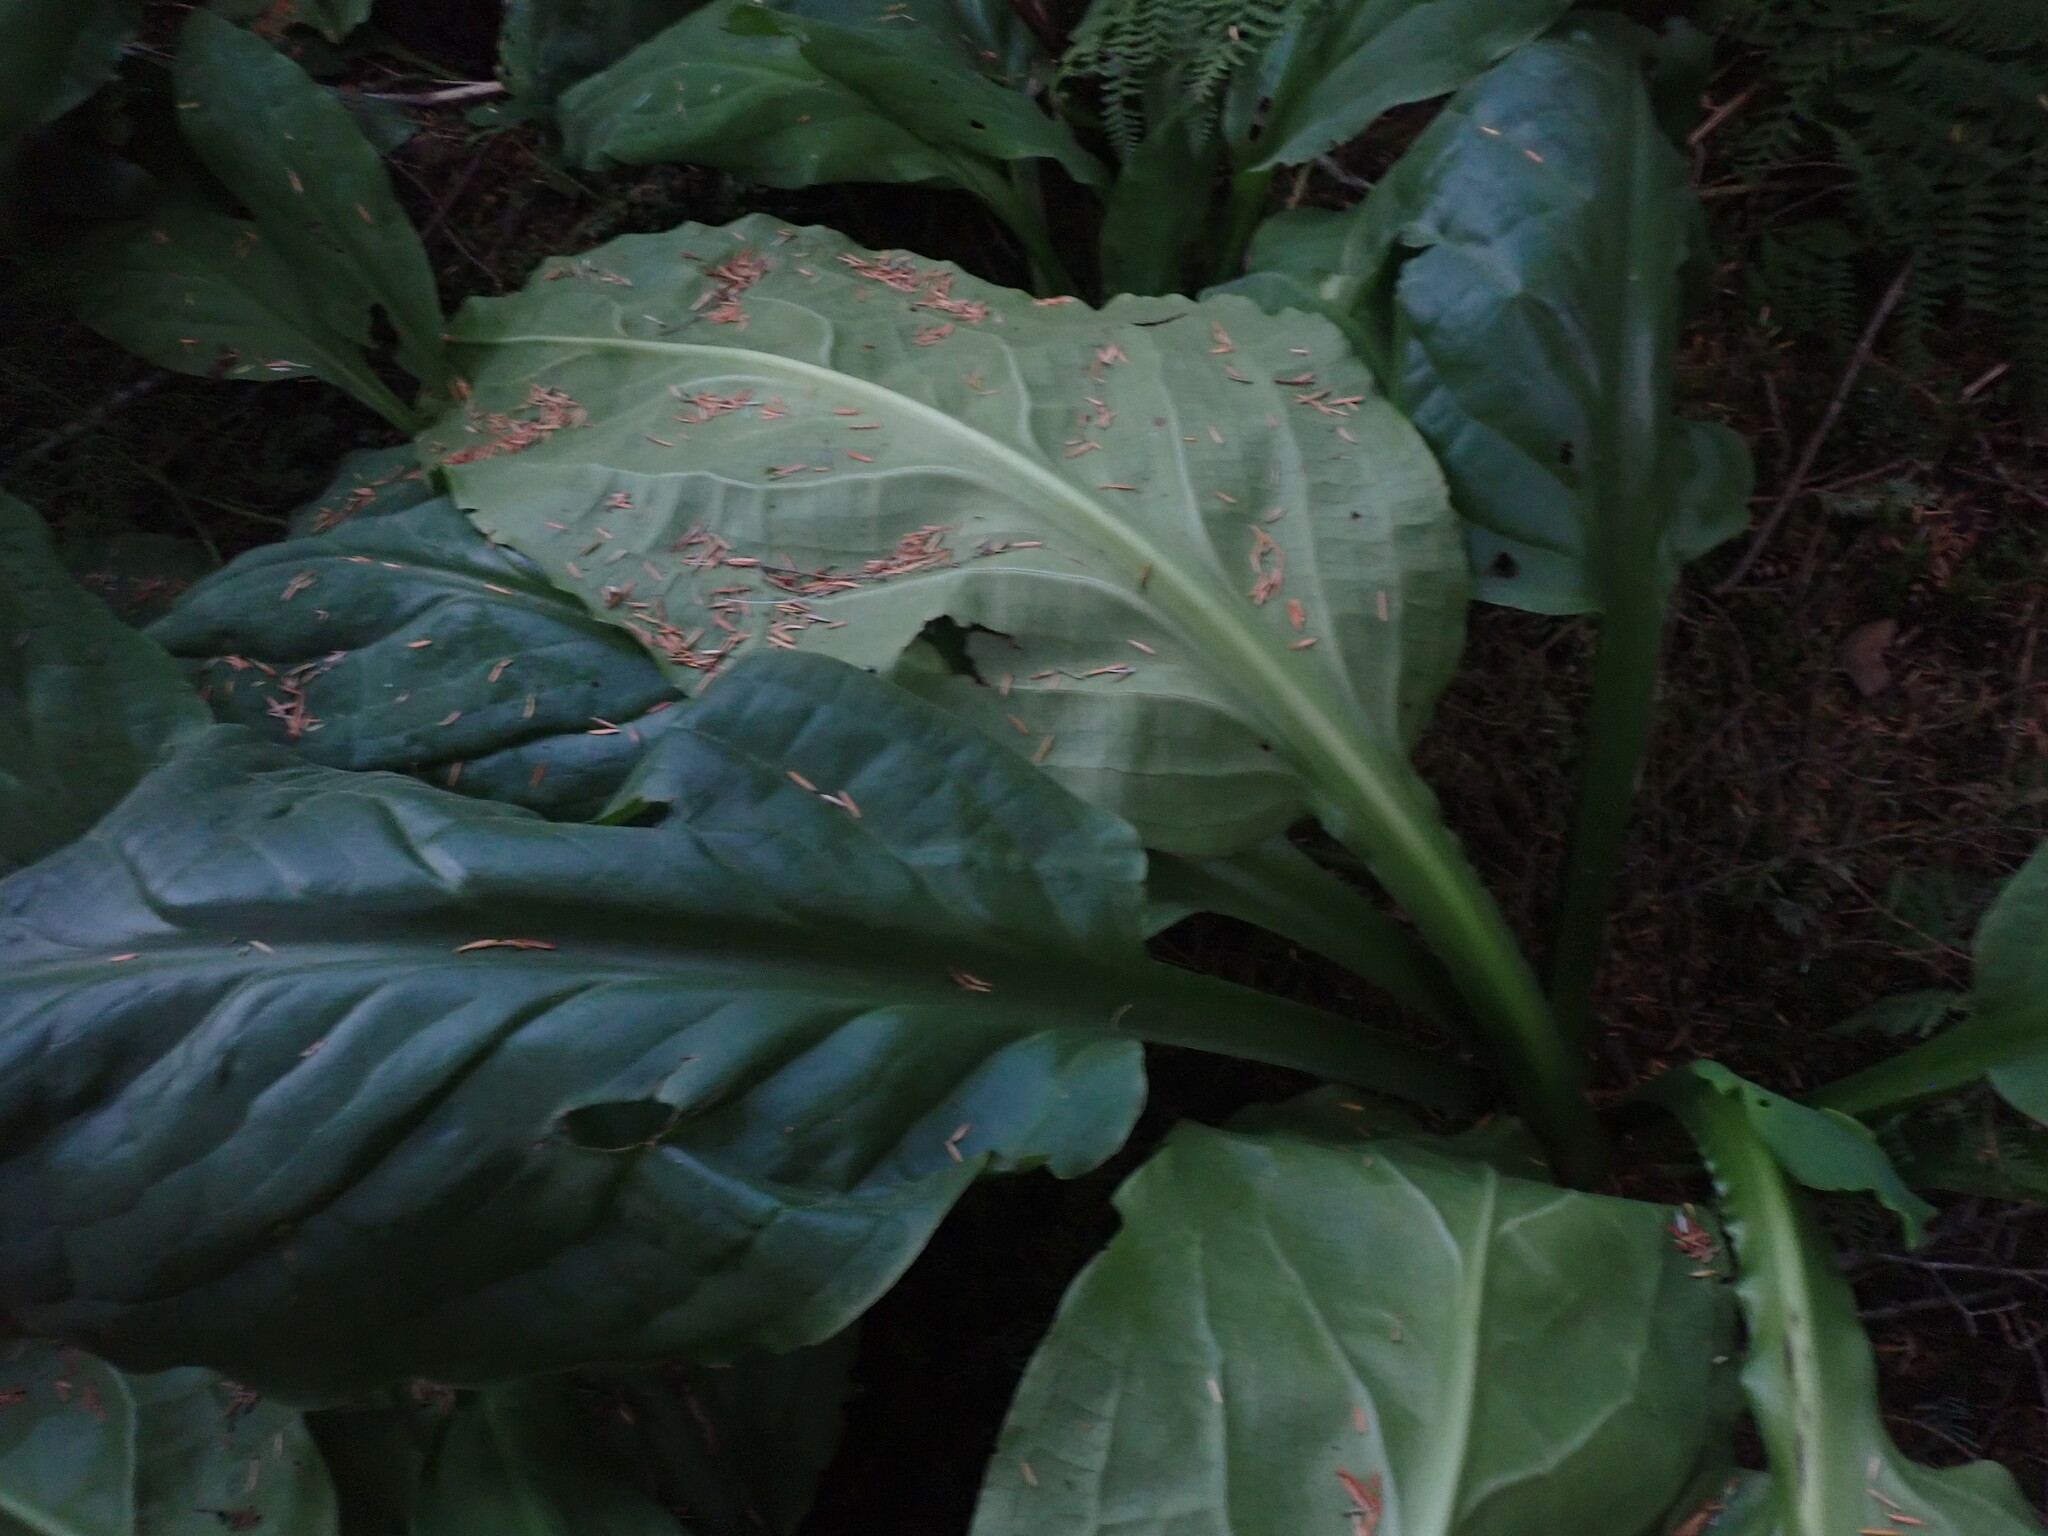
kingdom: Plantae
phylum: Tracheophyta
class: Liliopsida
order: Alismatales
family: Araceae
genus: Lysichiton
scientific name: Lysichiton americanus
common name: American skunk cabbage
